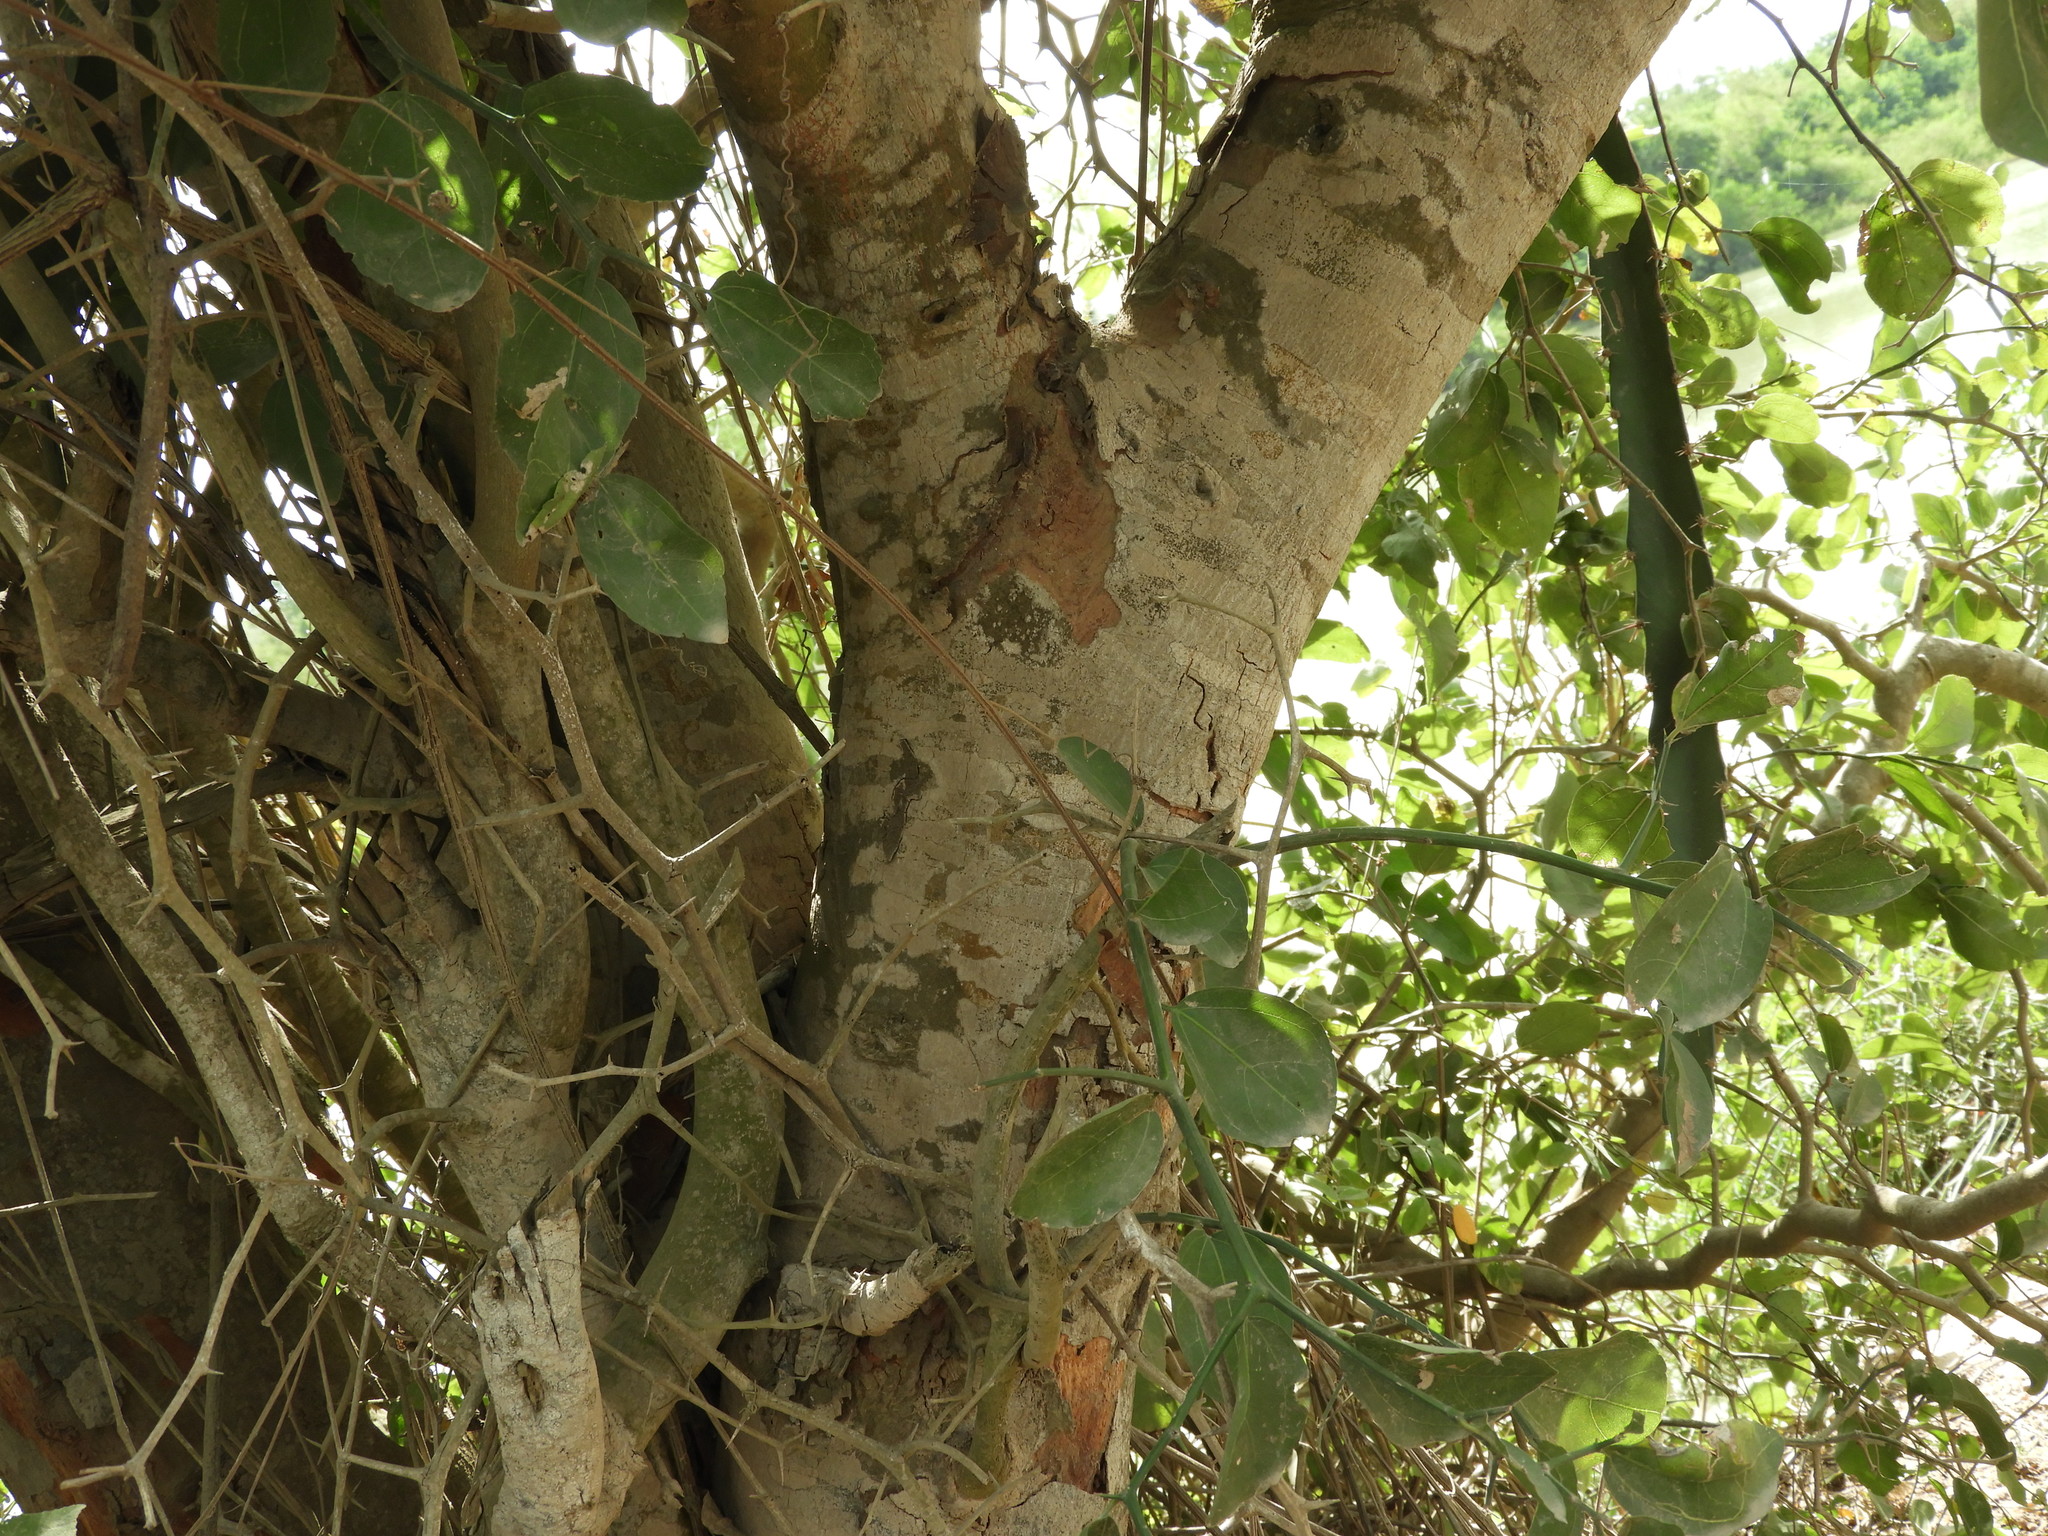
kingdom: Plantae
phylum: Tracheophyta
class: Magnoliopsida
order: Rosales
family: Rhamnaceae
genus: Sarcomphalus
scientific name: Sarcomphalus amole
